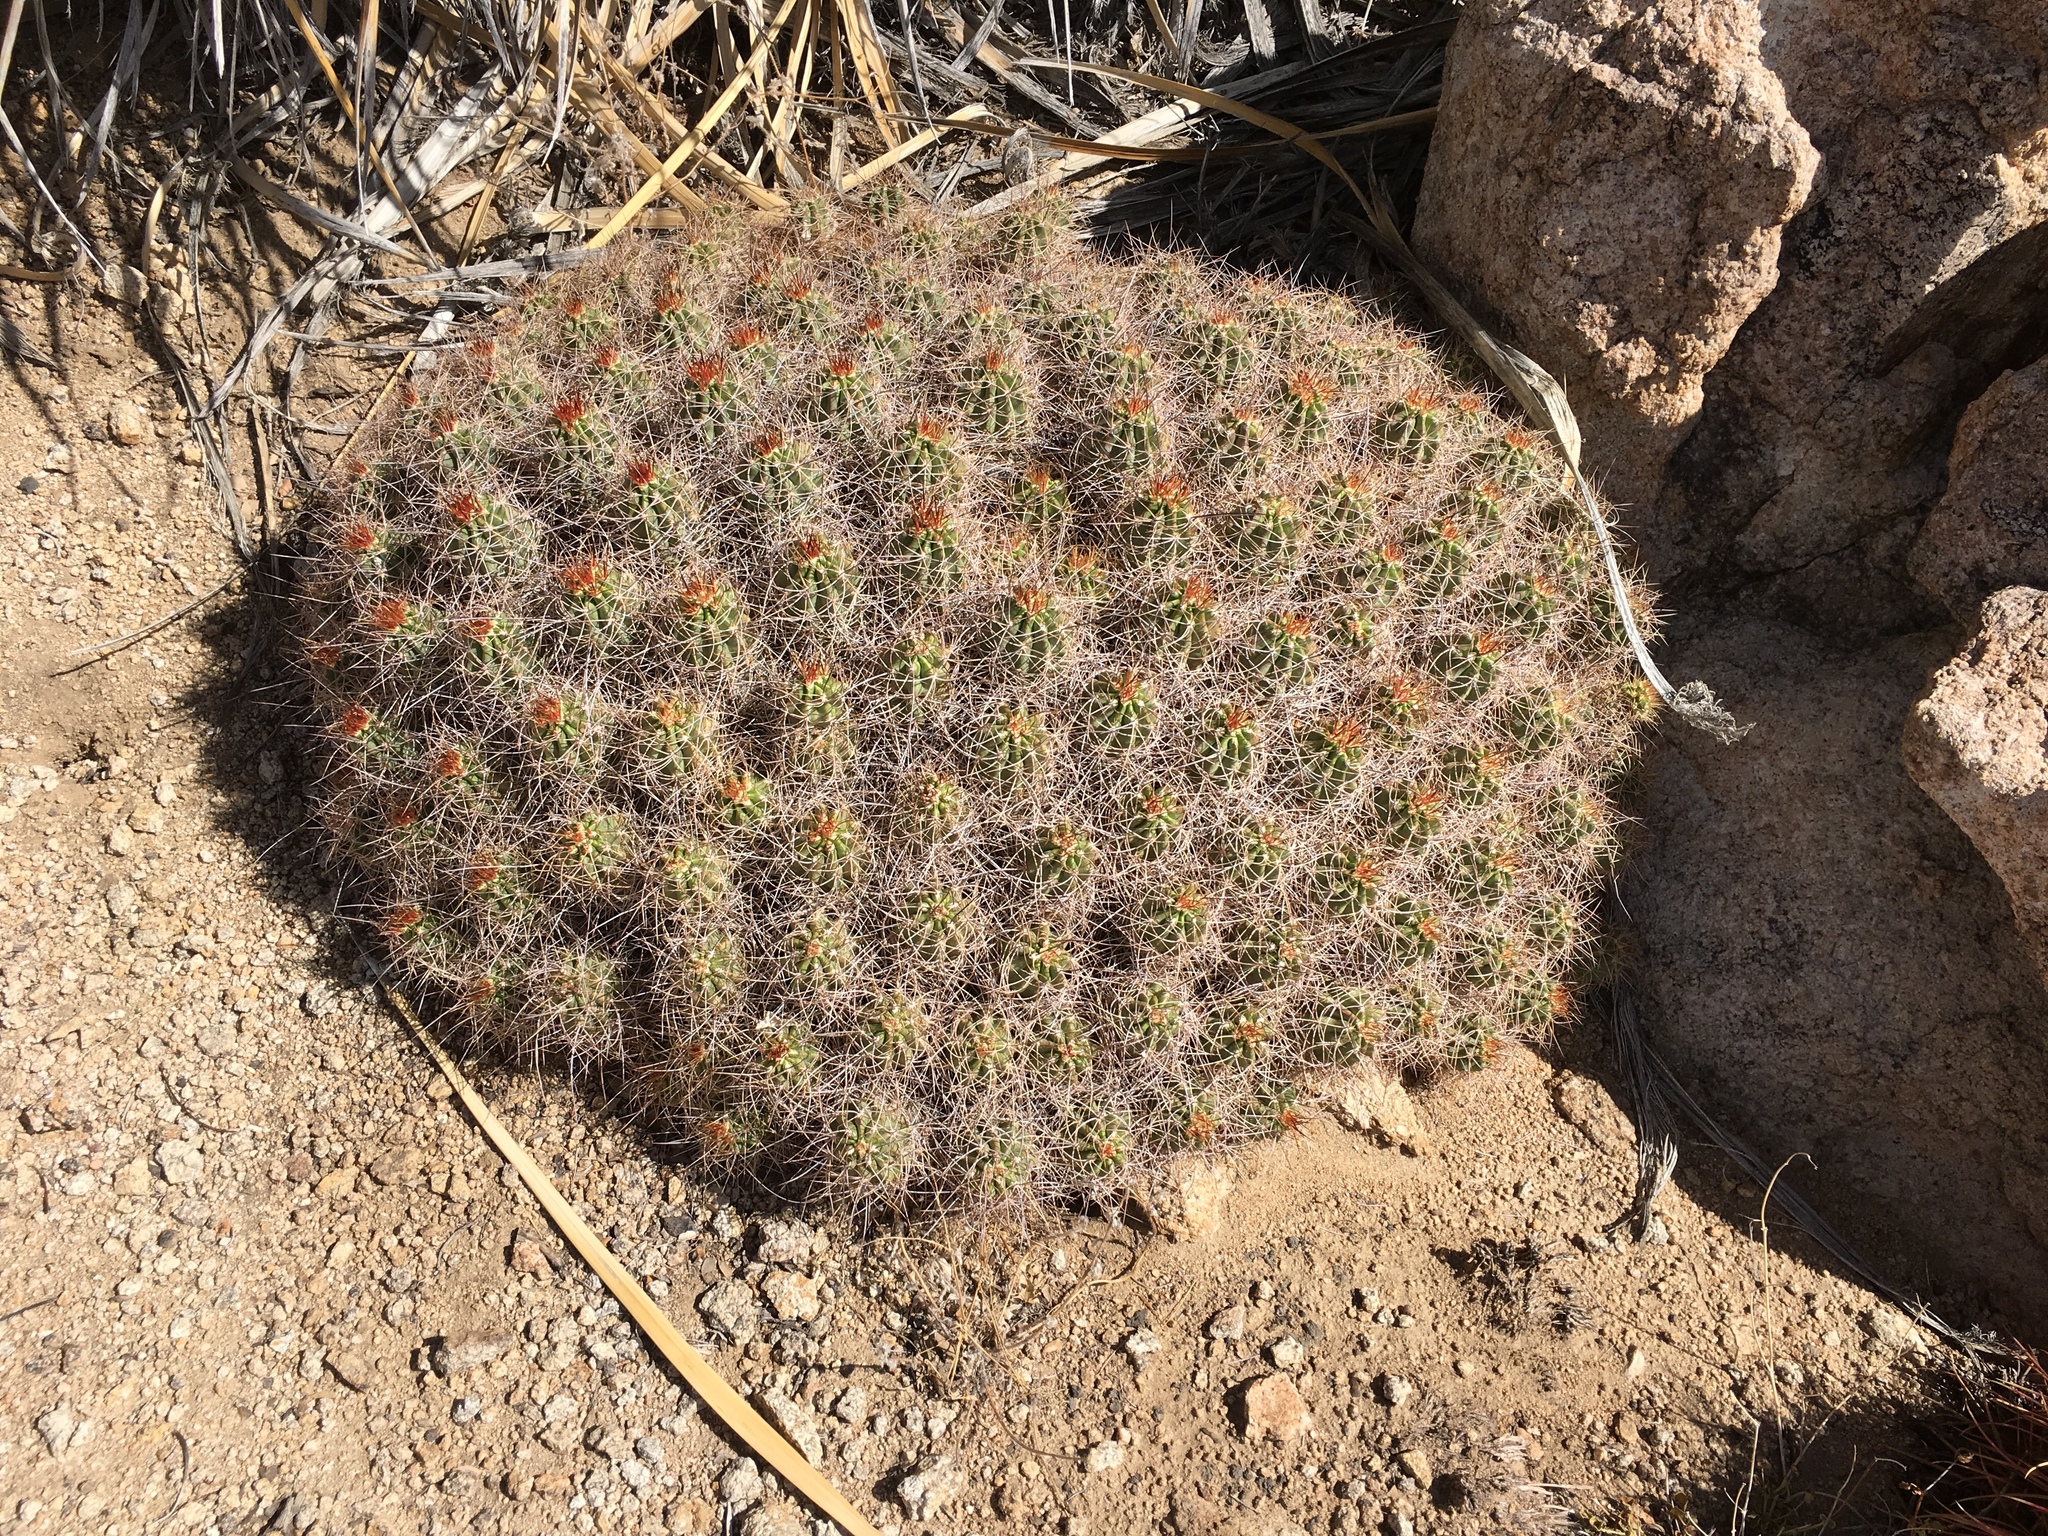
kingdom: Plantae
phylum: Tracheophyta
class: Magnoliopsida
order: Caryophyllales
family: Cactaceae
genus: Echinocereus
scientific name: Echinocereus triglochidiatus
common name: Claretcup hedgehog
